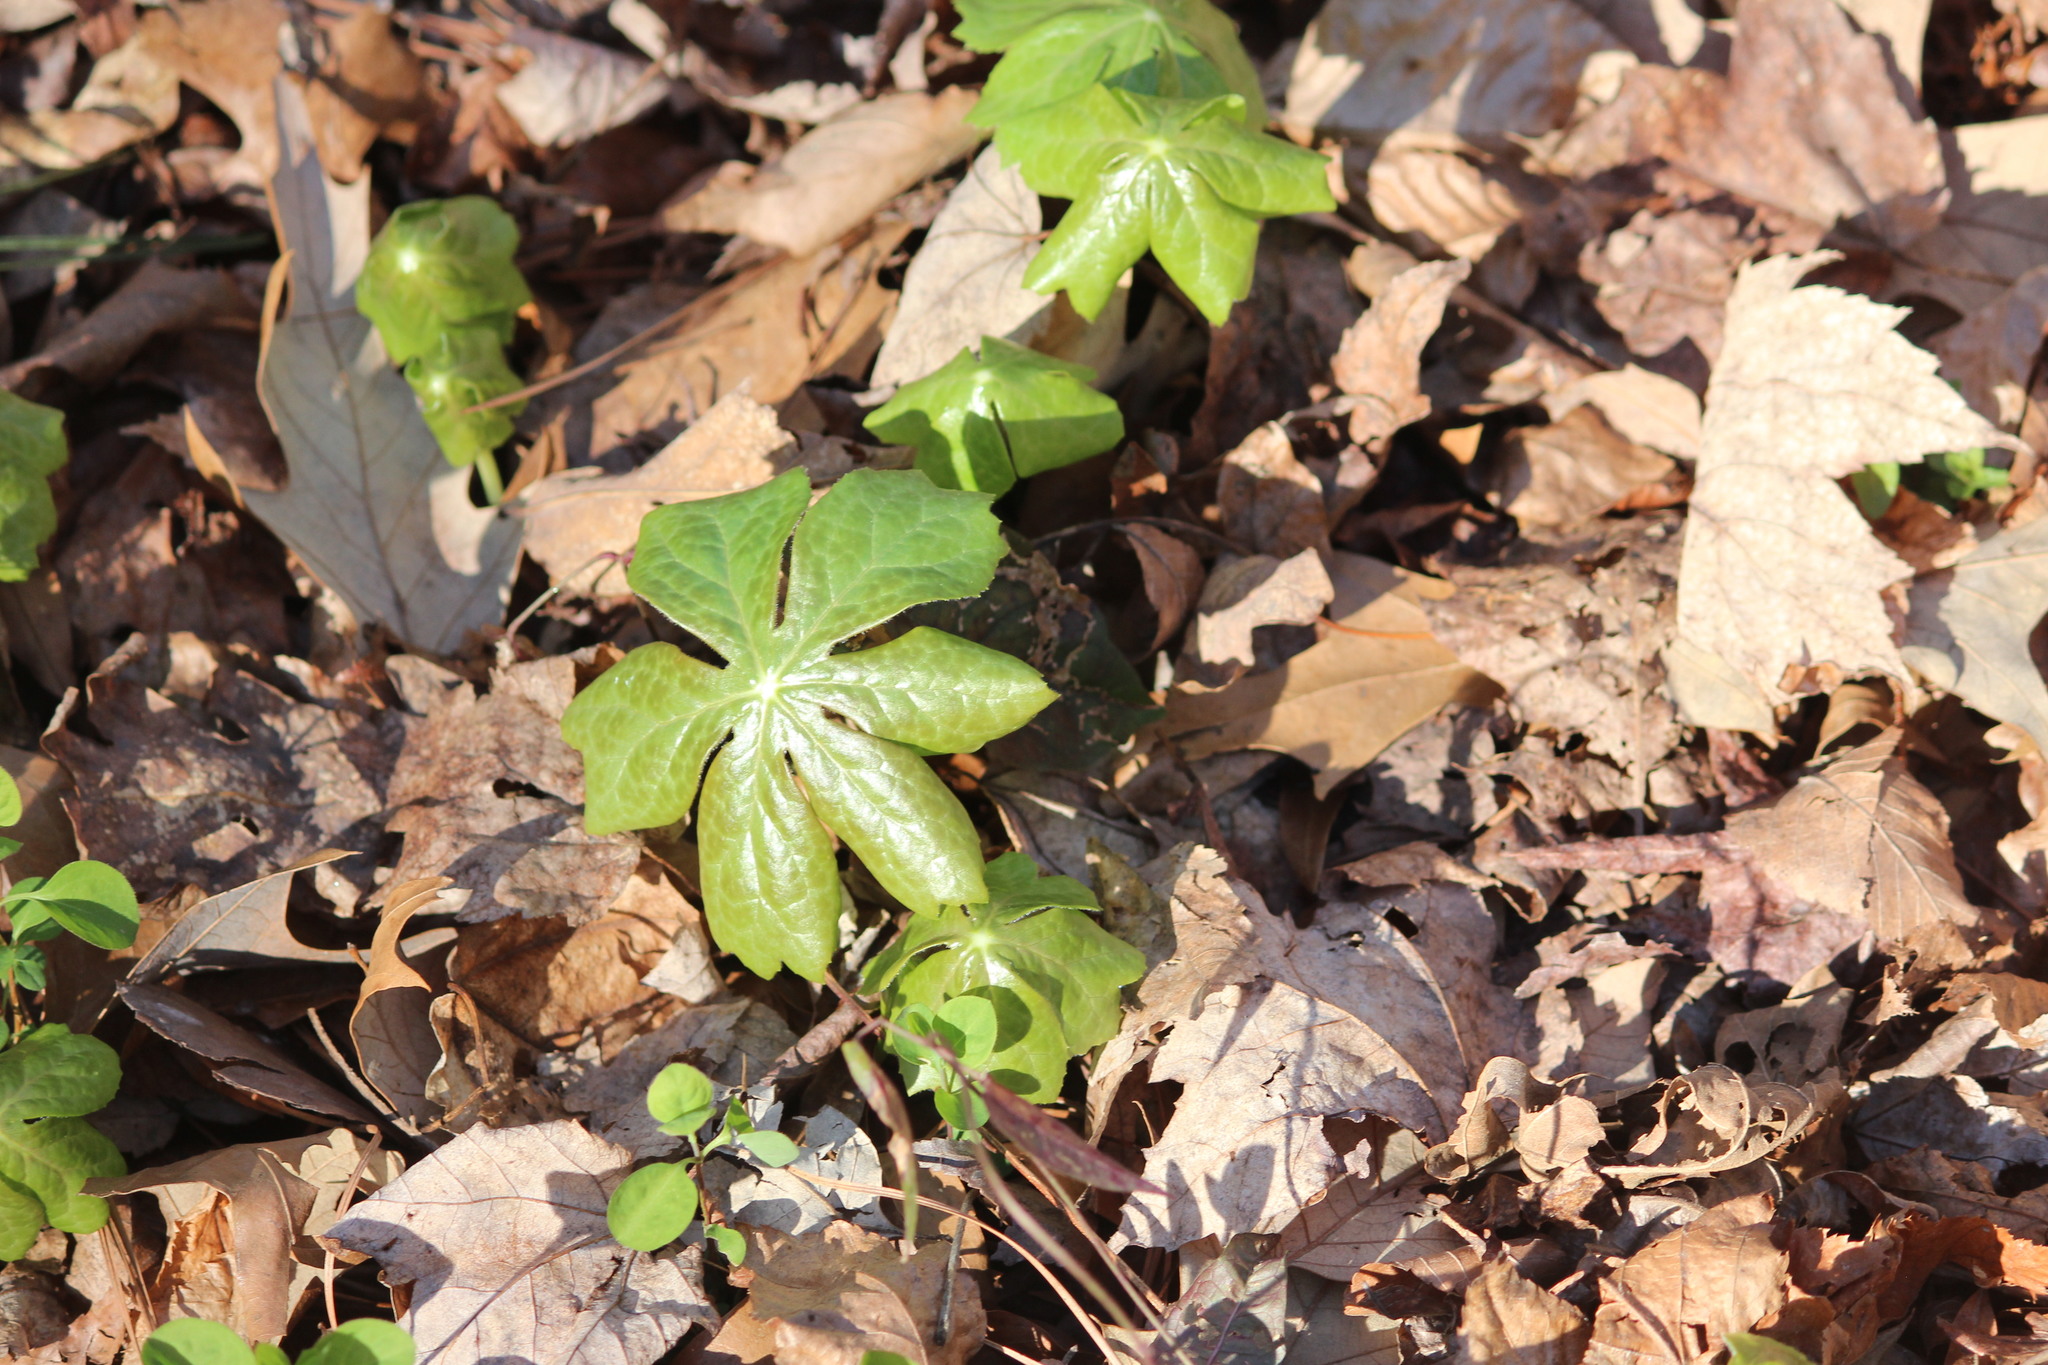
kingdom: Plantae
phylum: Tracheophyta
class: Magnoliopsida
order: Ranunculales
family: Berberidaceae
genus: Podophyllum
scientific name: Podophyllum peltatum
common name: Wild mandrake
